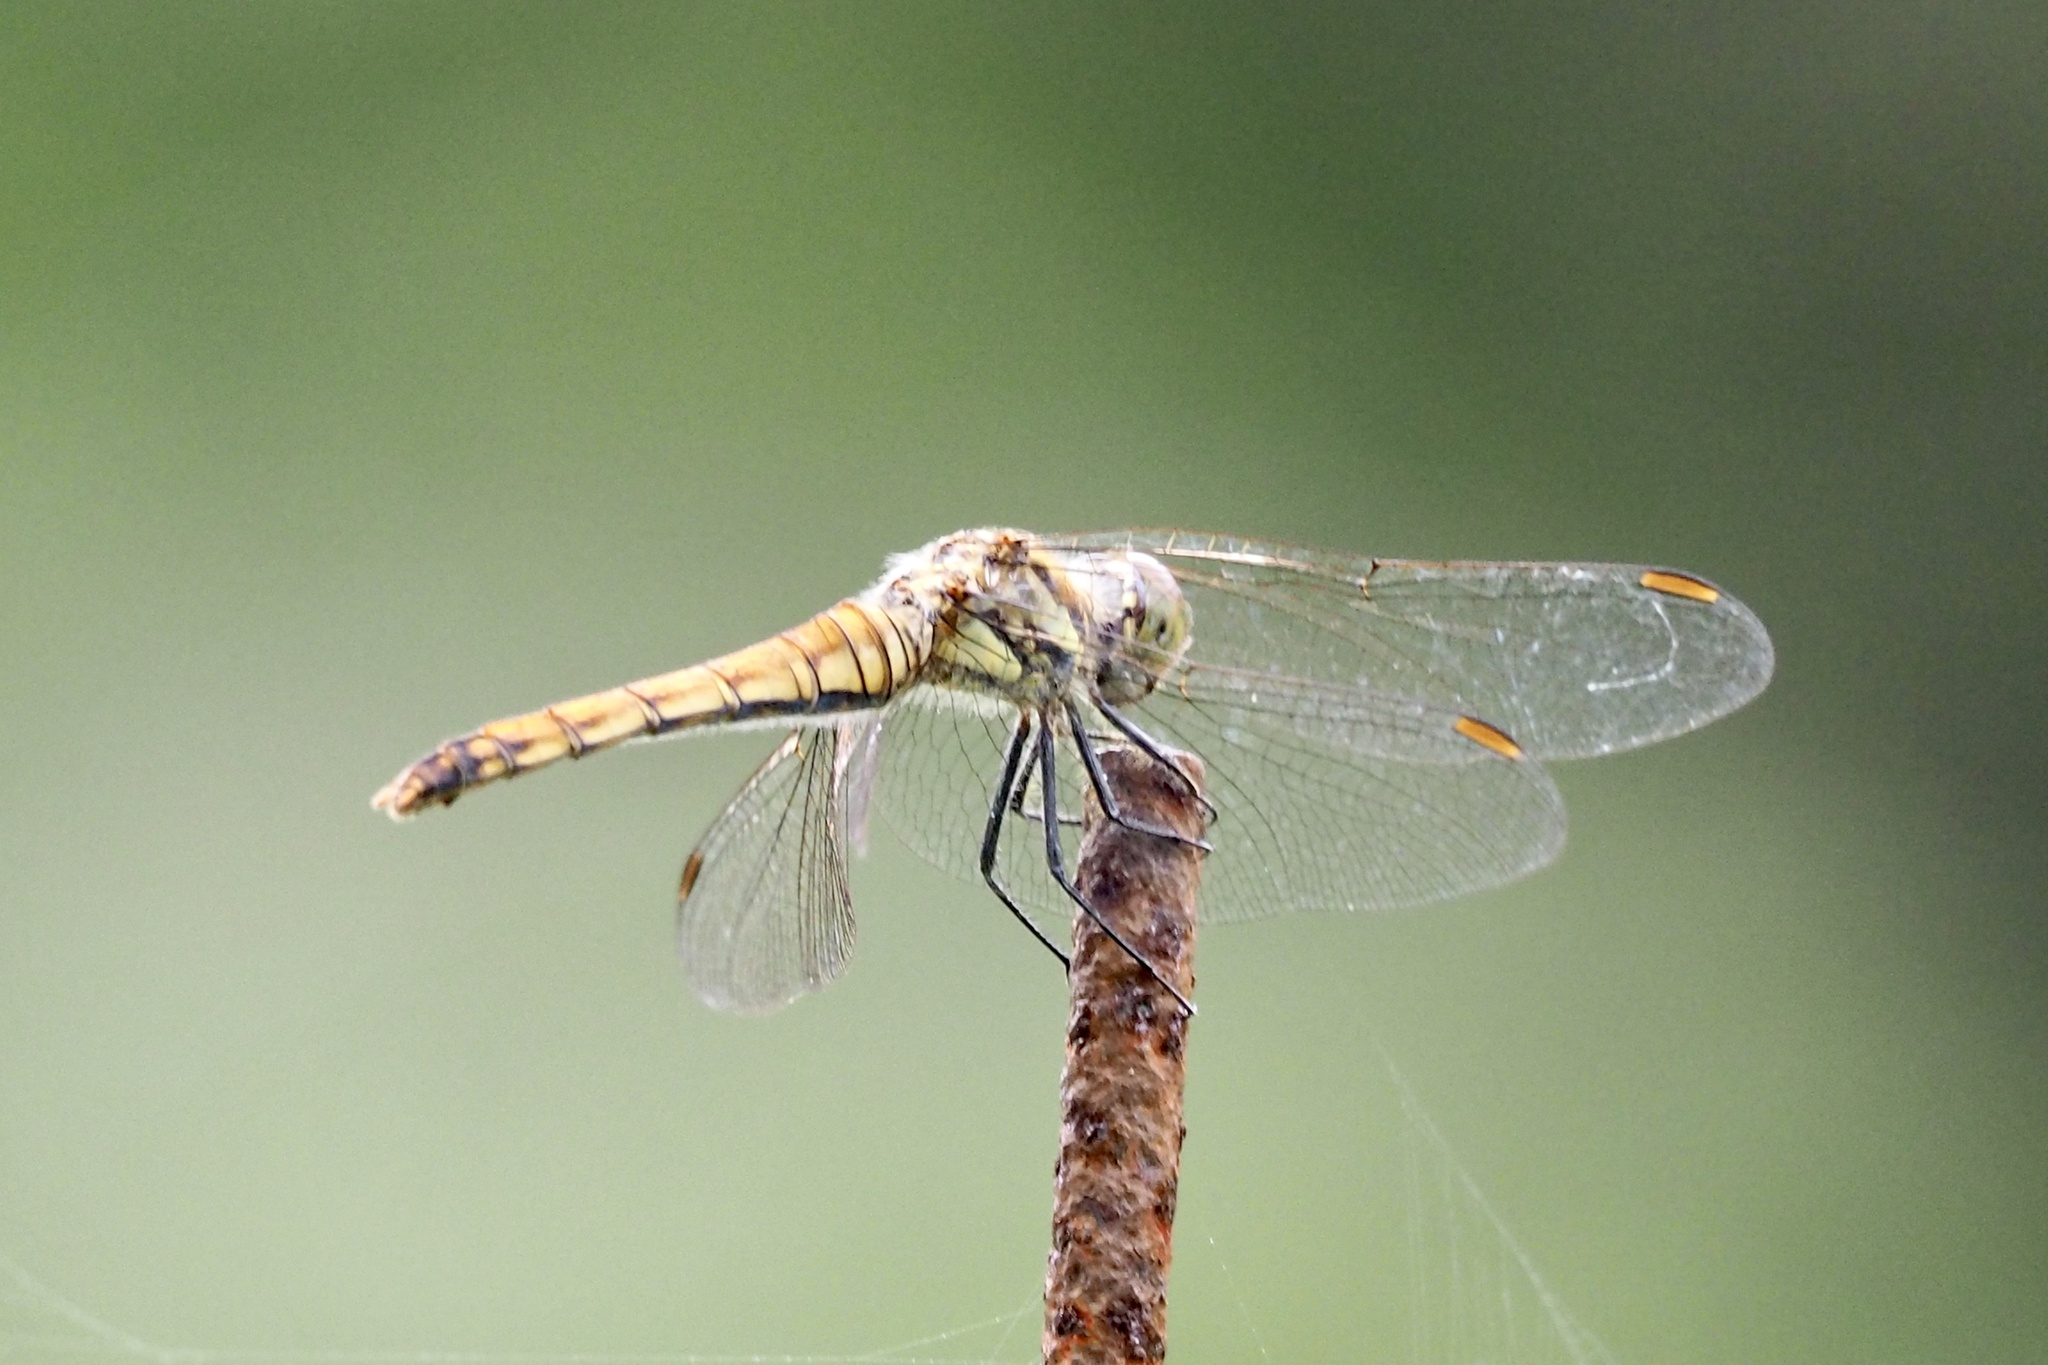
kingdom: Animalia
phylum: Arthropoda
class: Insecta
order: Odonata
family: Libellulidae
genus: Sympetrum
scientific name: Sympetrum darwinianum
